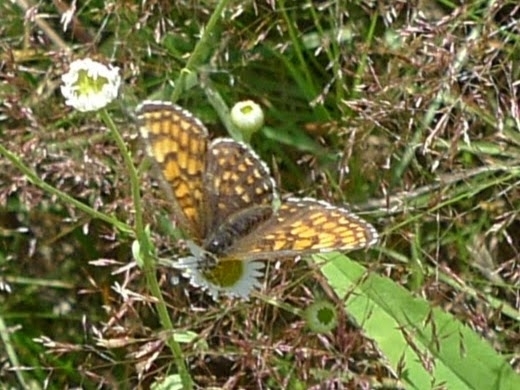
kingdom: Animalia
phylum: Arthropoda
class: Insecta
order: Lepidoptera
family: Nymphalidae
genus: Melitaea
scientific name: Melitaea athalia
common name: Heath fritillary
